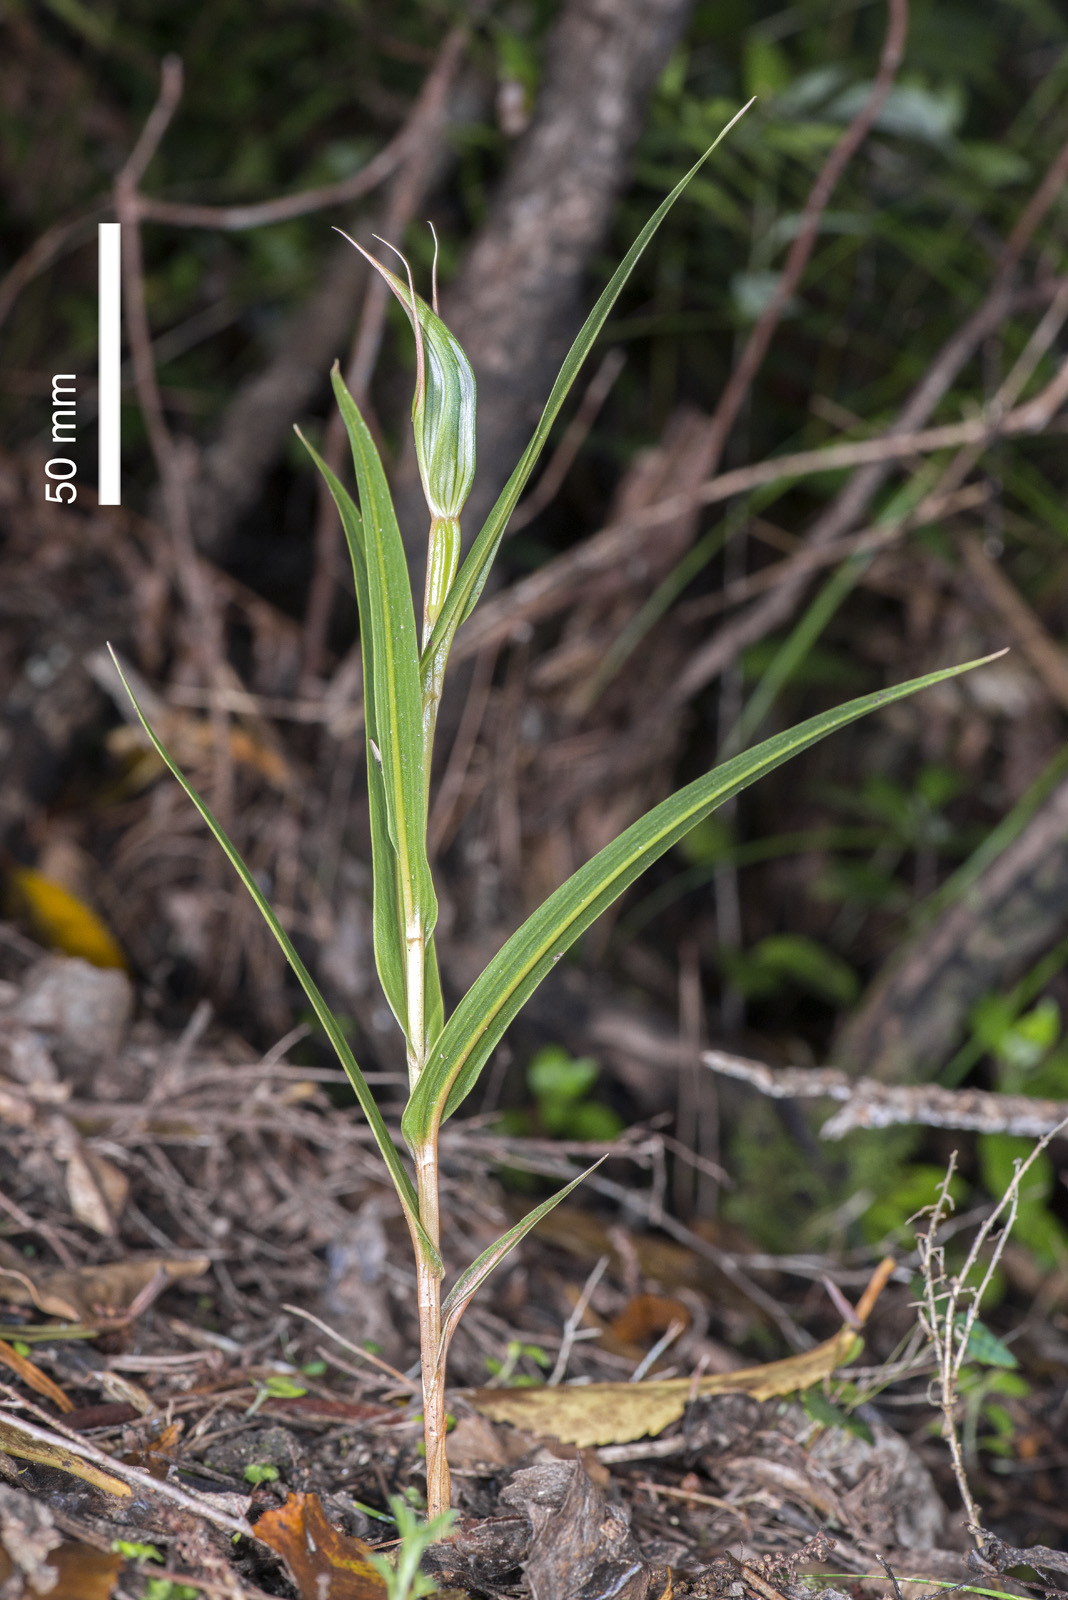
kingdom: Plantae
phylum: Tracheophyta
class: Liliopsida
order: Asparagales
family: Orchidaceae
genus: Pterostylis
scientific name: Pterostylis cardiostigma
